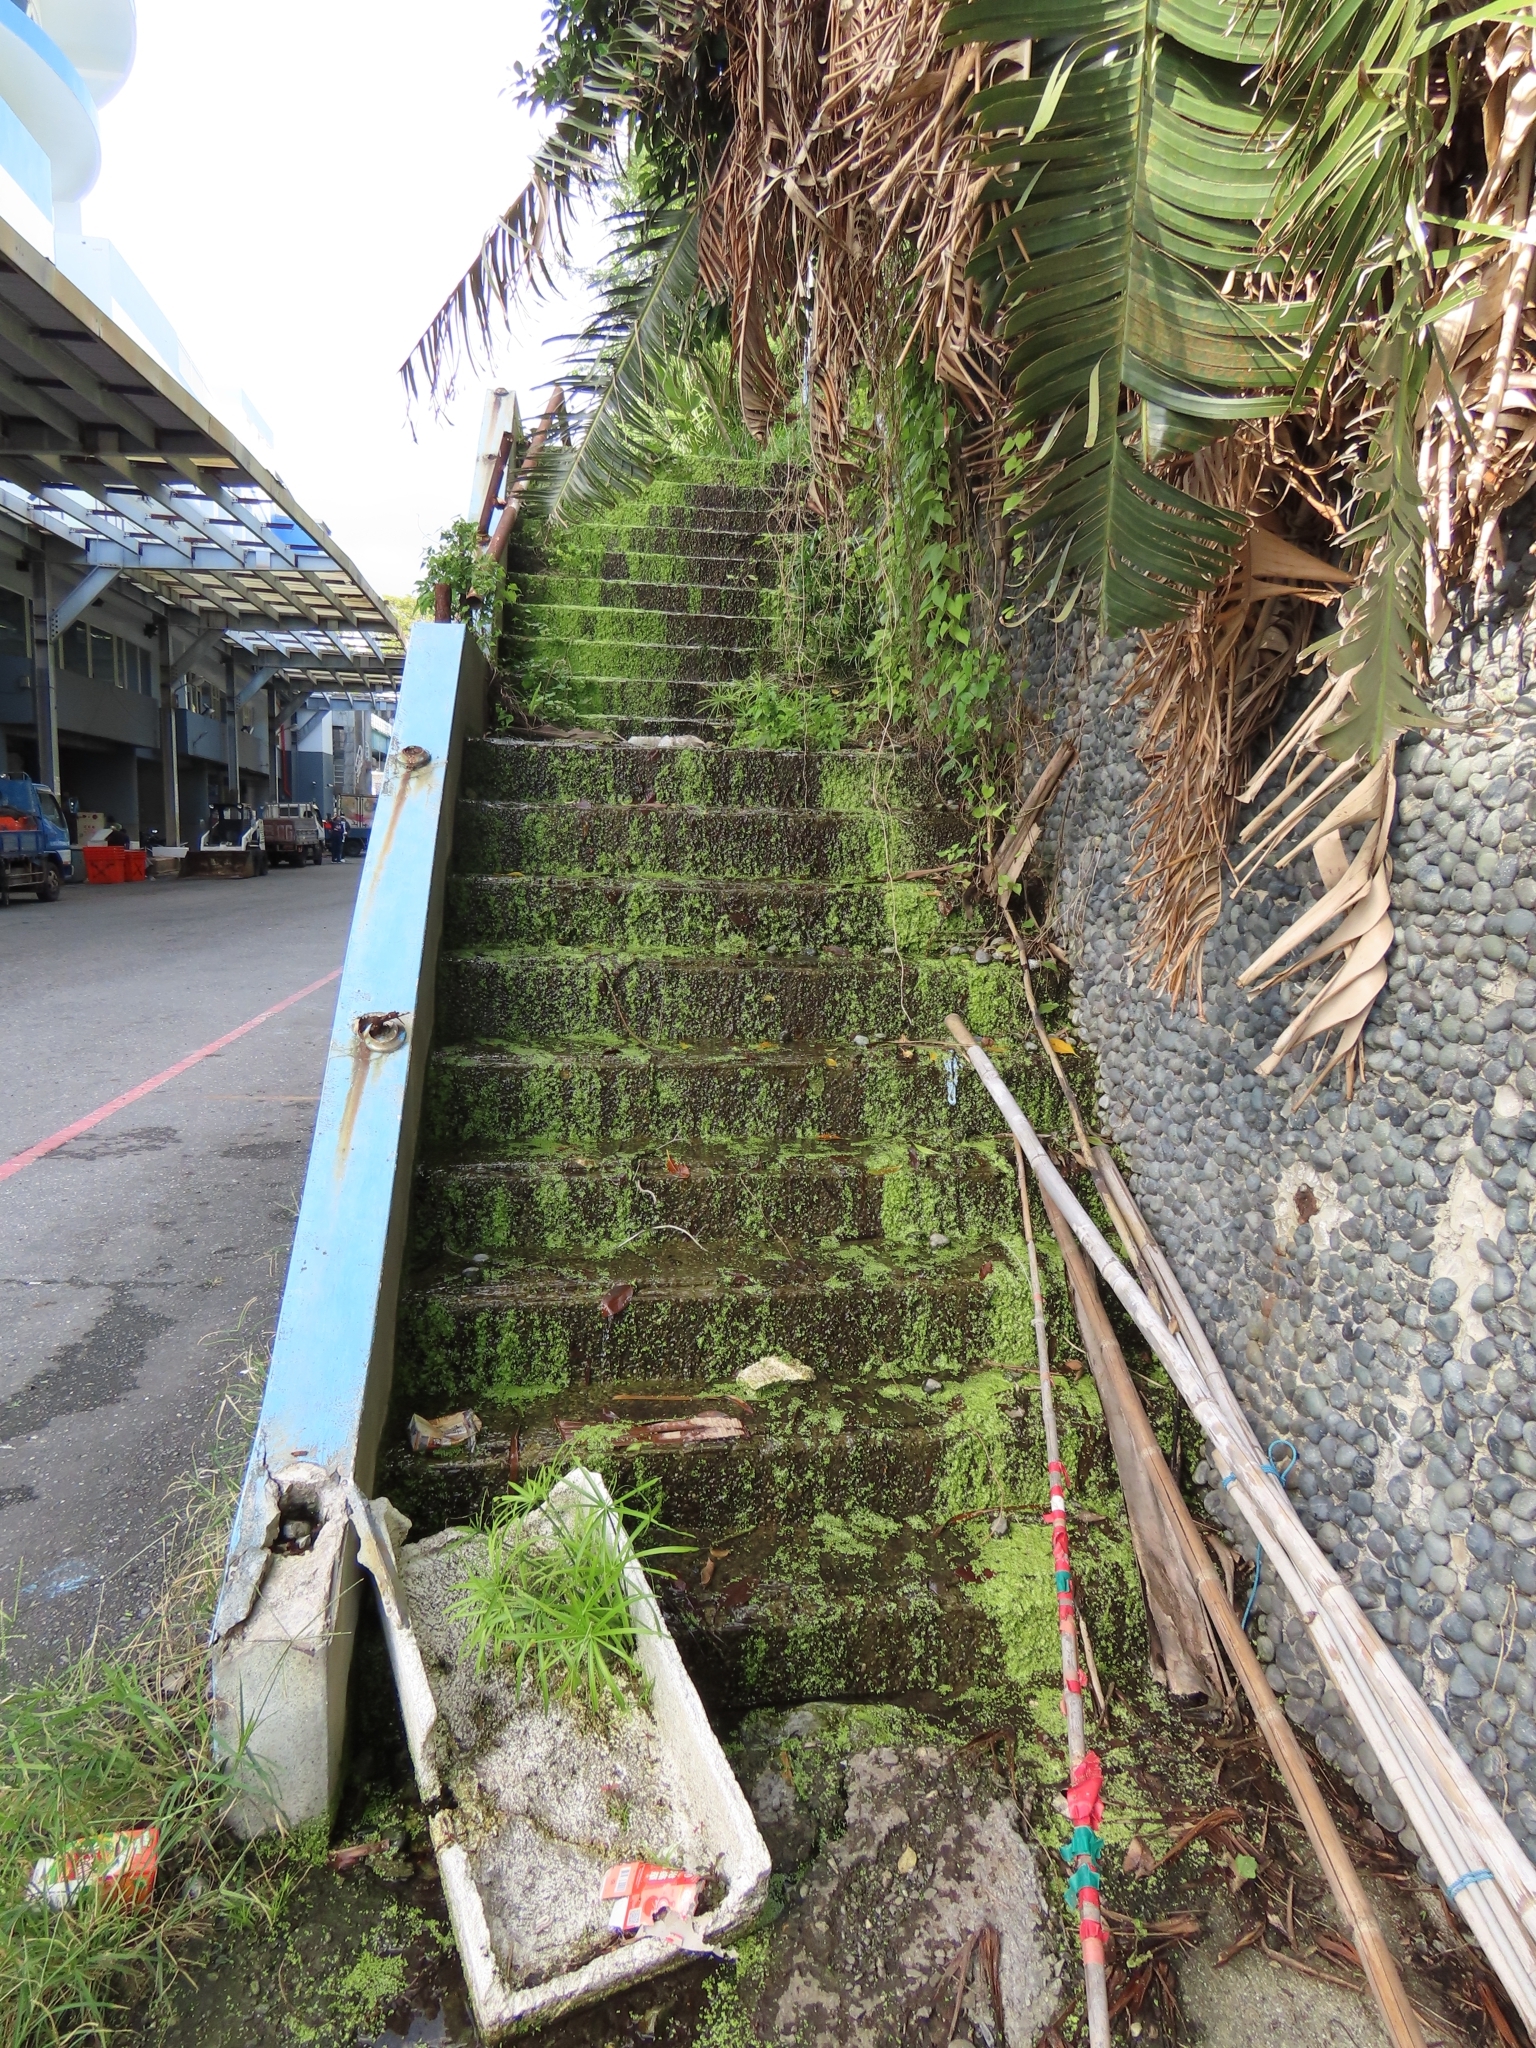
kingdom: Plantae
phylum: Tracheophyta
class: Liliopsida
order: Alismatales
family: Araceae
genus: Lemna
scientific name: Lemna aequinoctialis
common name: Duckweed
